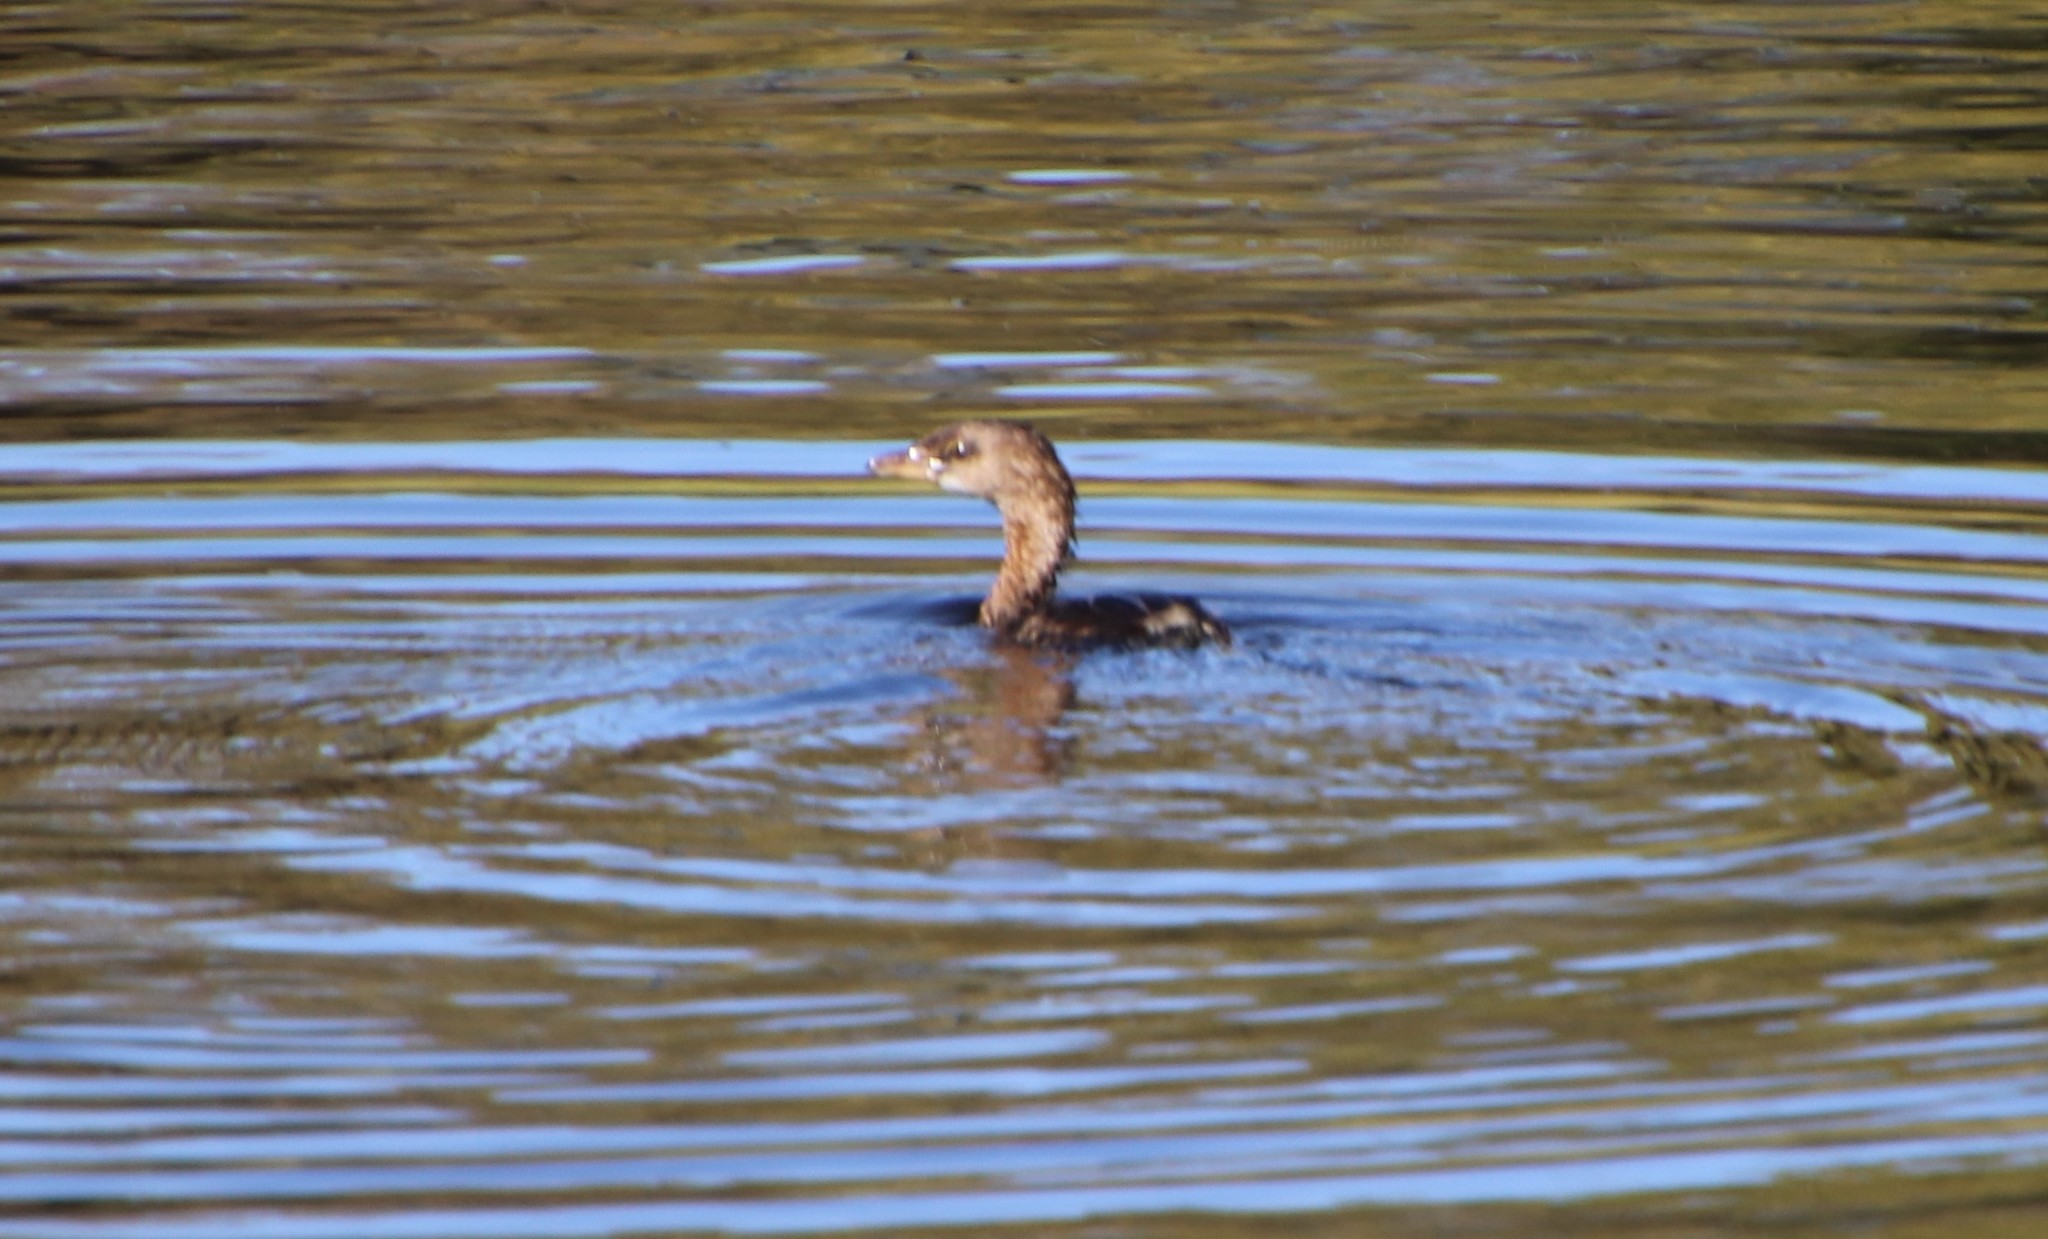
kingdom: Animalia
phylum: Chordata
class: Aves
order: Podicipediformes
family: Podicipedidae
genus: Podilymbus
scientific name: Podilymbus podiceps
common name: Pied-billed grebe
